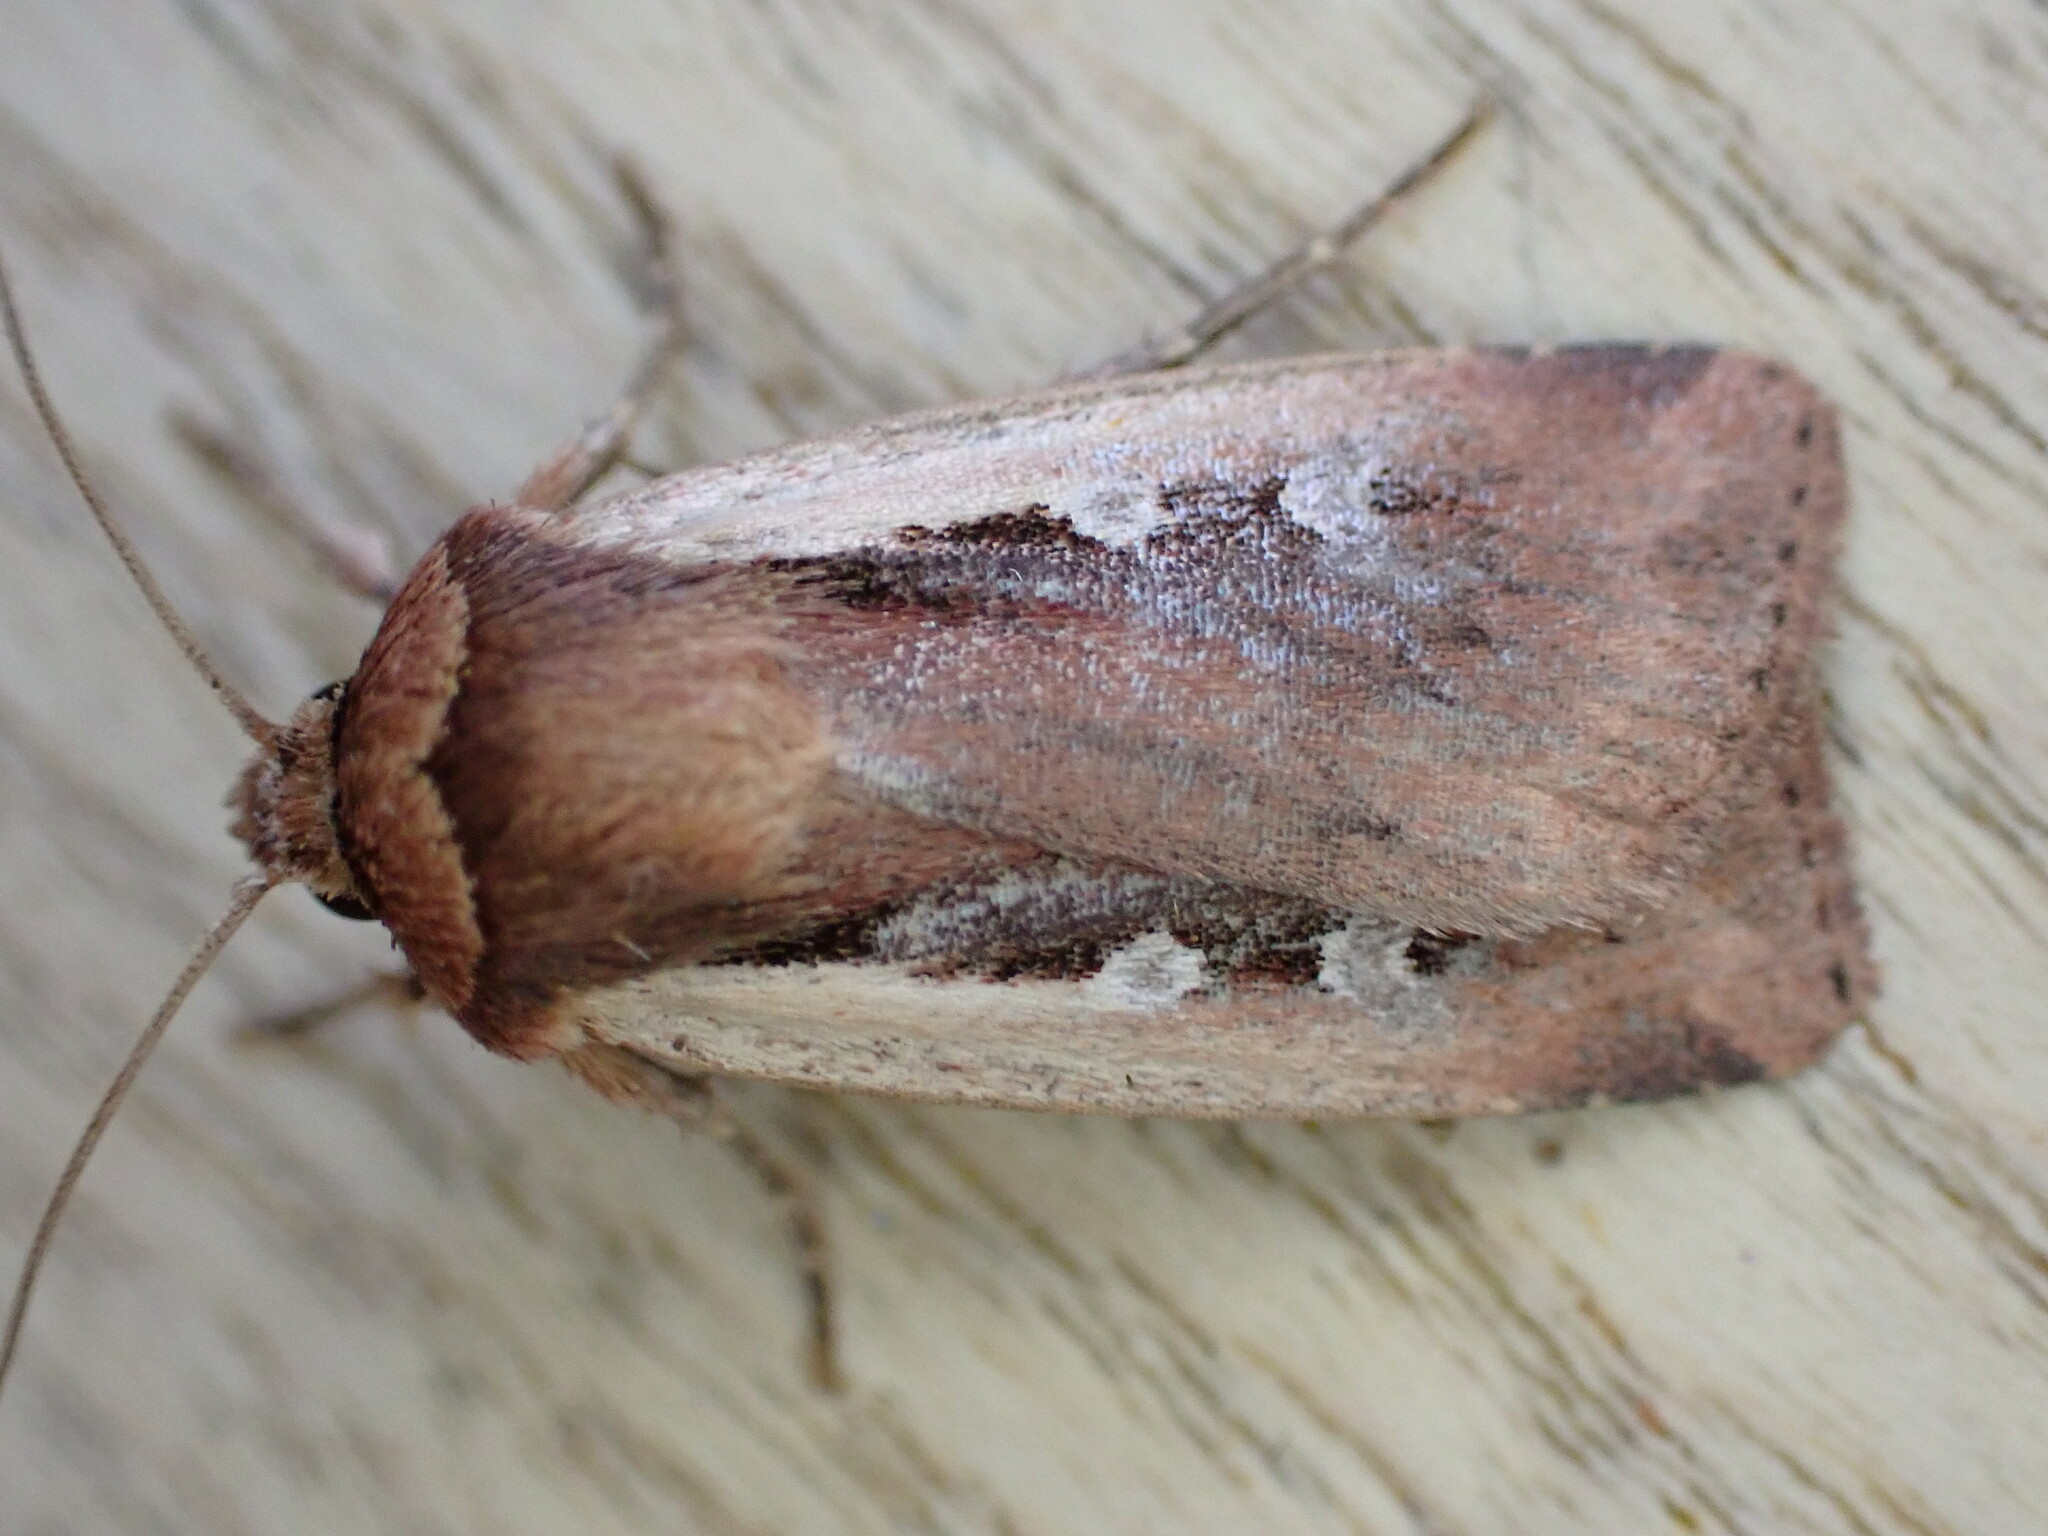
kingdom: Animalia
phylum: Arthropoda
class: Insecta
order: Lepidoptera
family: Noctuidae
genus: Ochropleura
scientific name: Ochropleura plecta
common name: Flame shoulder
